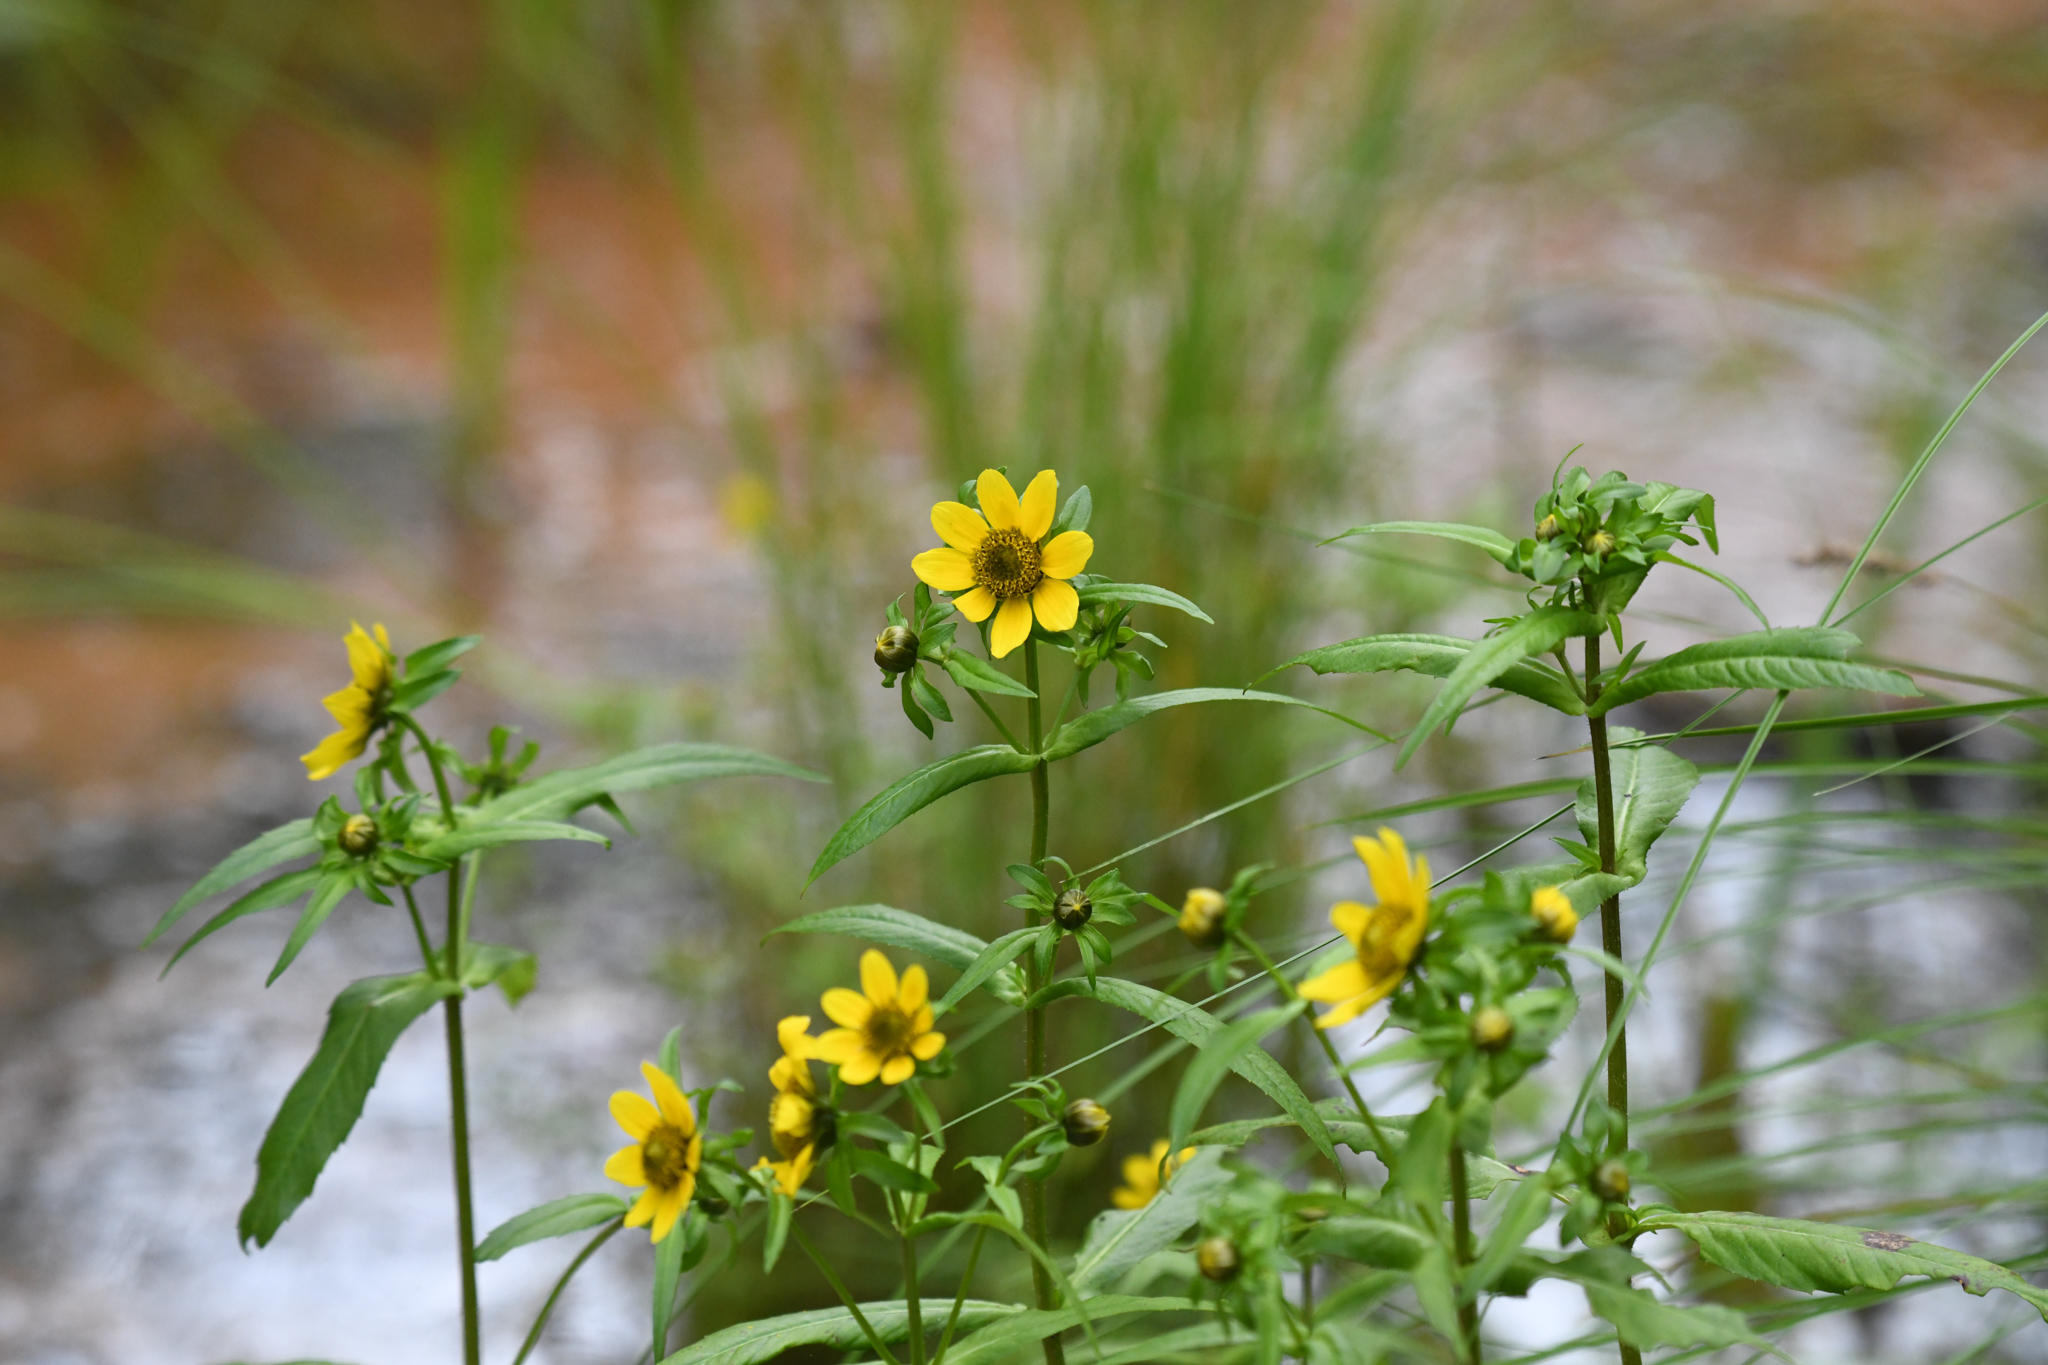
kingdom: Plantae
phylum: Tracheophyta
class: Magnoliopsida
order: Asterales
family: Asteraceae
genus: Bidens
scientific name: Bidens cernua
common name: Nodding bur-marigold
